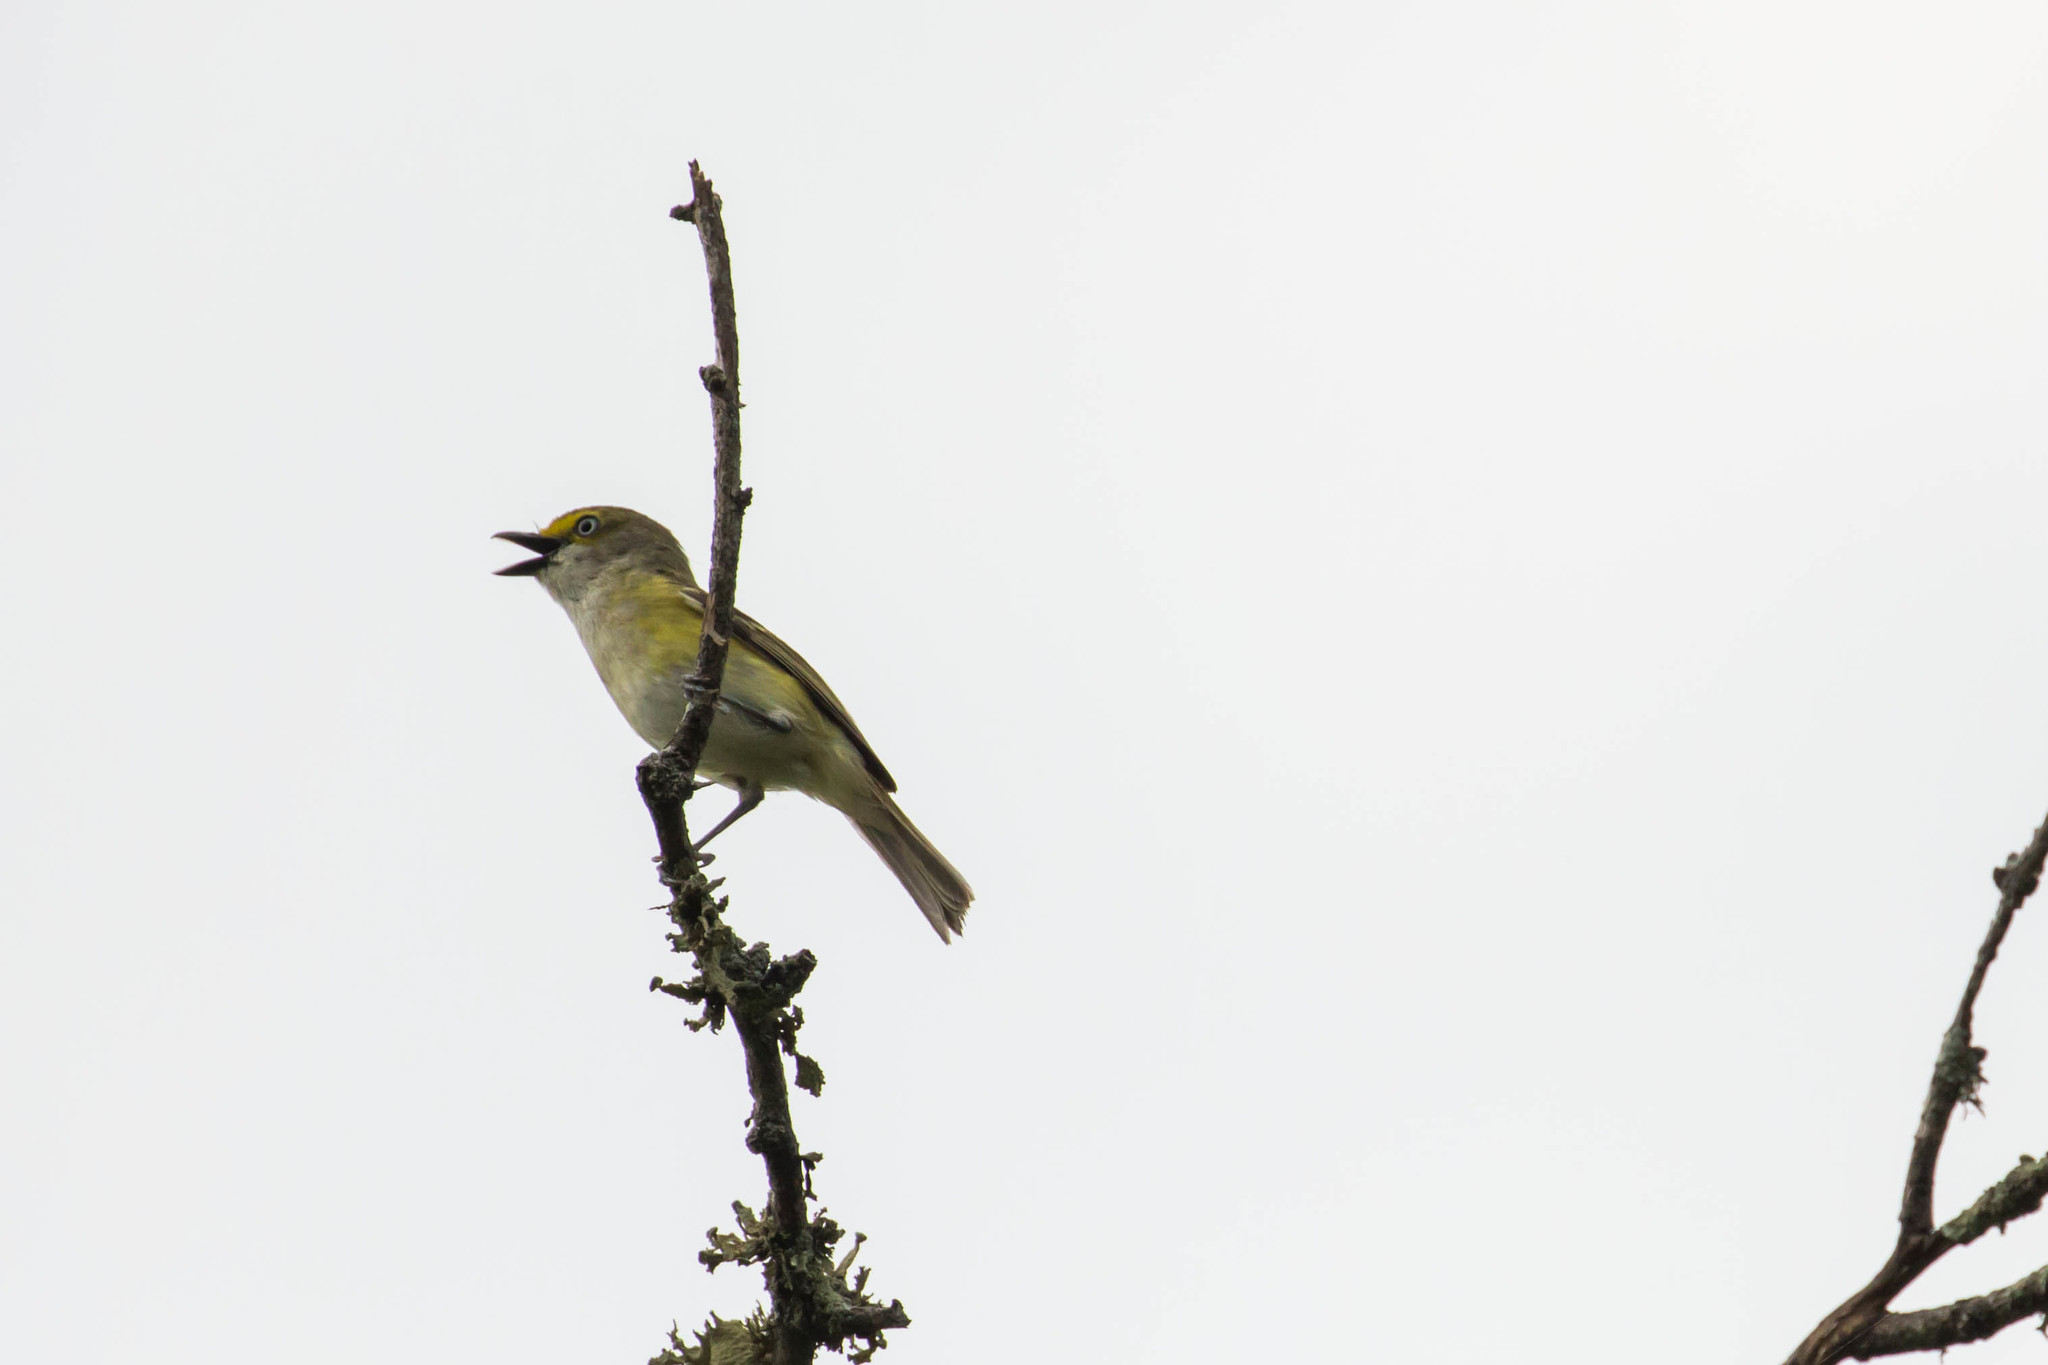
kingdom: Animalia
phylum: Chordata
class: Aves
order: Passeriformes
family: Vireonidae
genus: Vireo
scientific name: Vireo griseus
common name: White-eyed vireo
